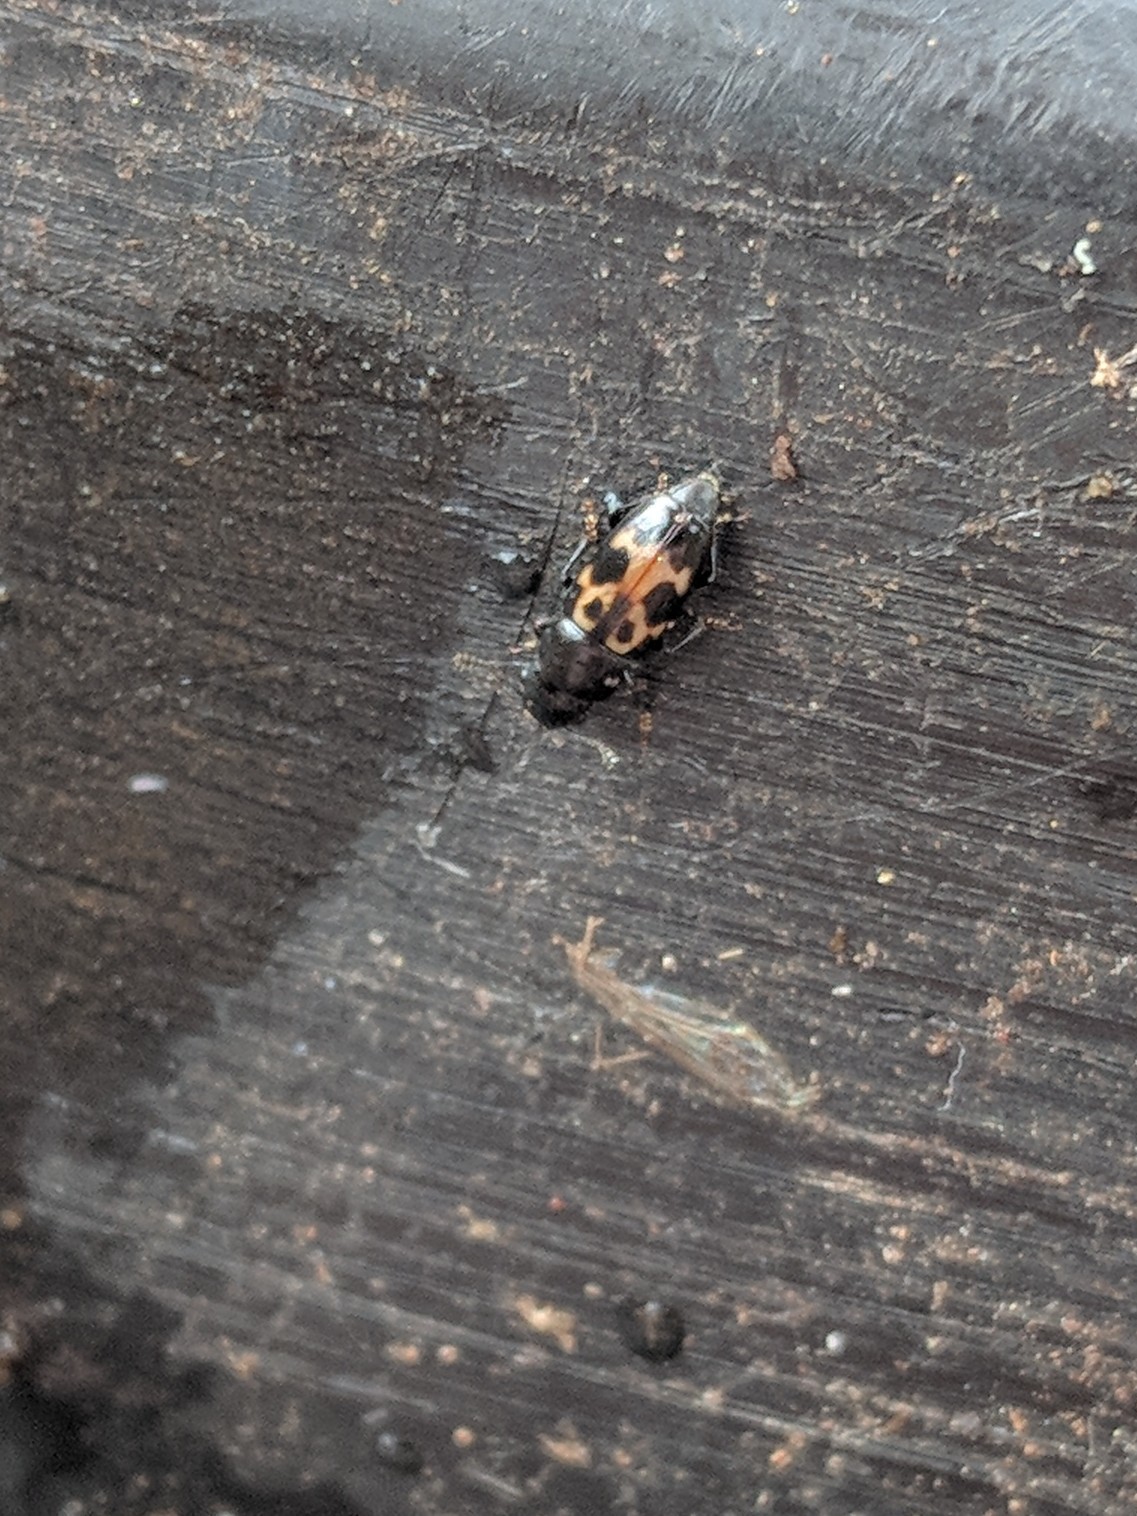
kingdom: Animalia
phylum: Arthropoda
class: Insecta
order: Coleoptera
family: Nitidulidae
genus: Glischrochilus
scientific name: Glischrochilus confluentus
